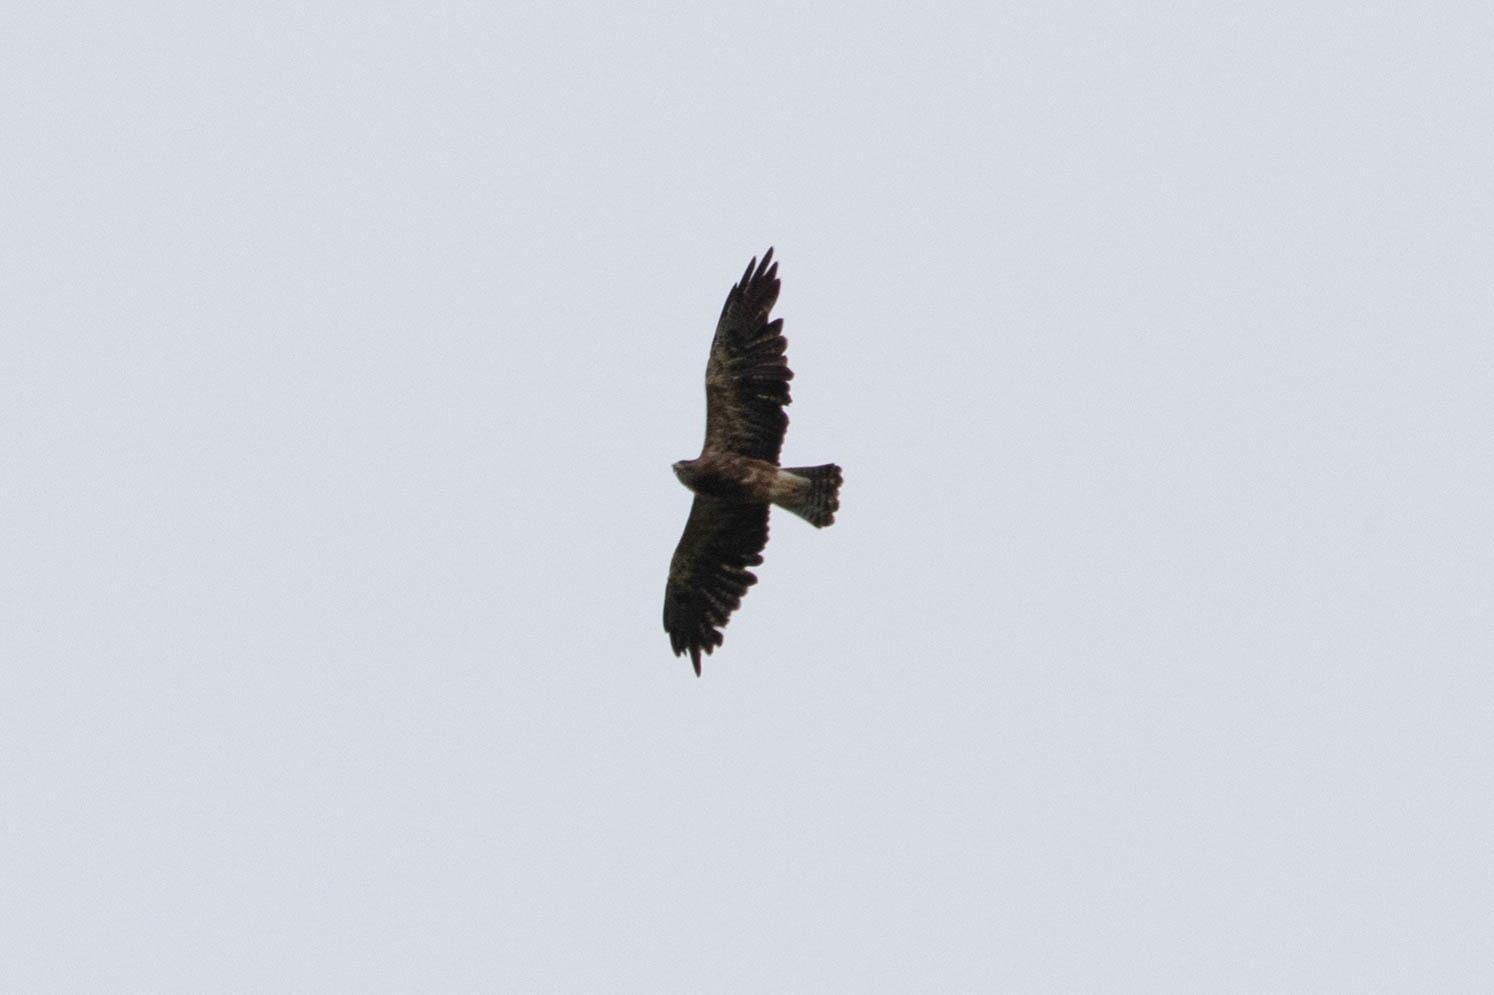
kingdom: Animalia
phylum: Chordata
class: Aves
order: Accipitriformes
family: Accipitridae
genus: Buteo
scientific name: Buteo swainsoni
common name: Swainson's hawk
